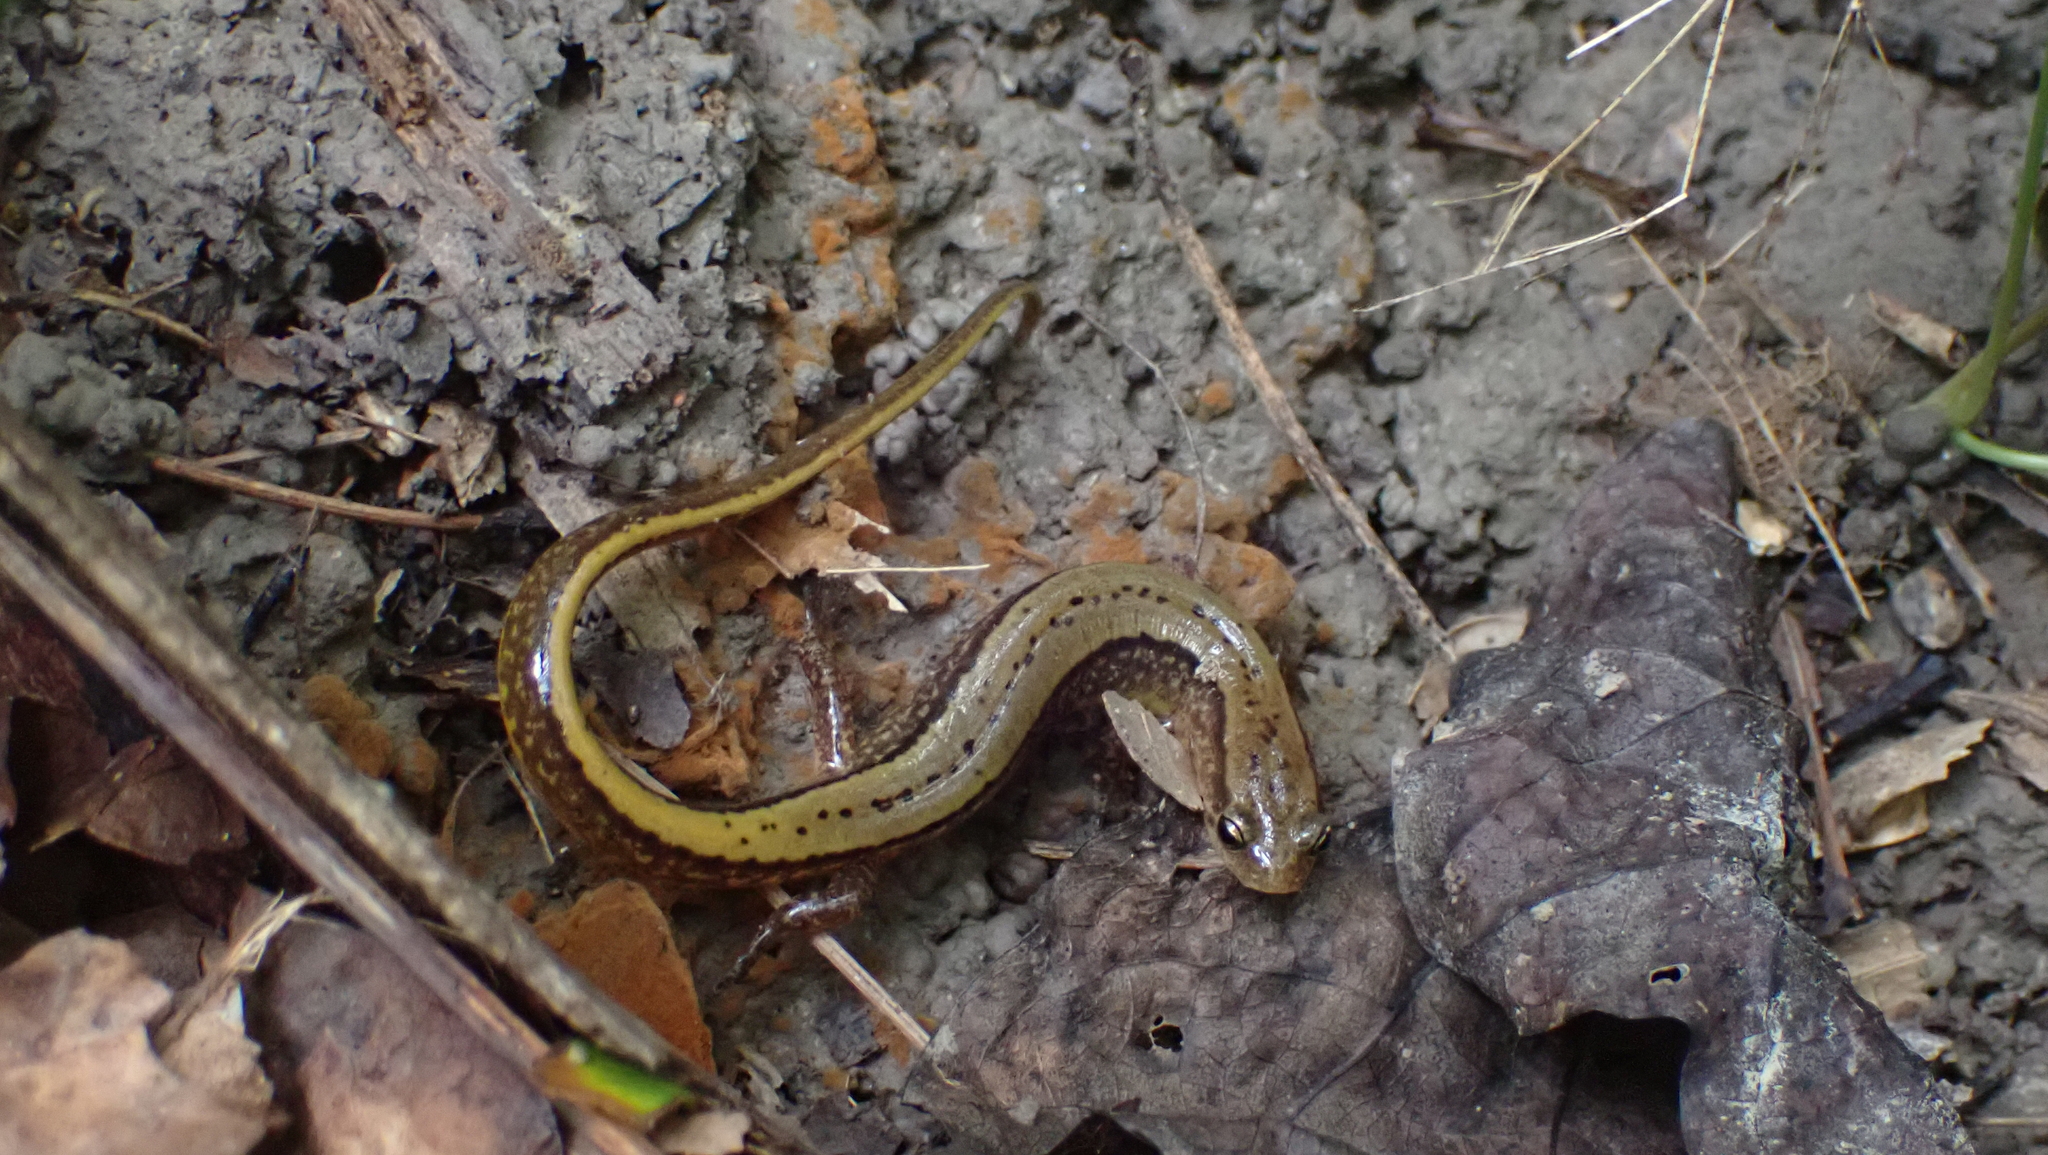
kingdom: Animalia
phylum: Chordata
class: Amphibia
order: Caudata
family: Plethodontidae
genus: Eurycea
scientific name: Eurycea cirrigera
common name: Southern two-lined salamander
